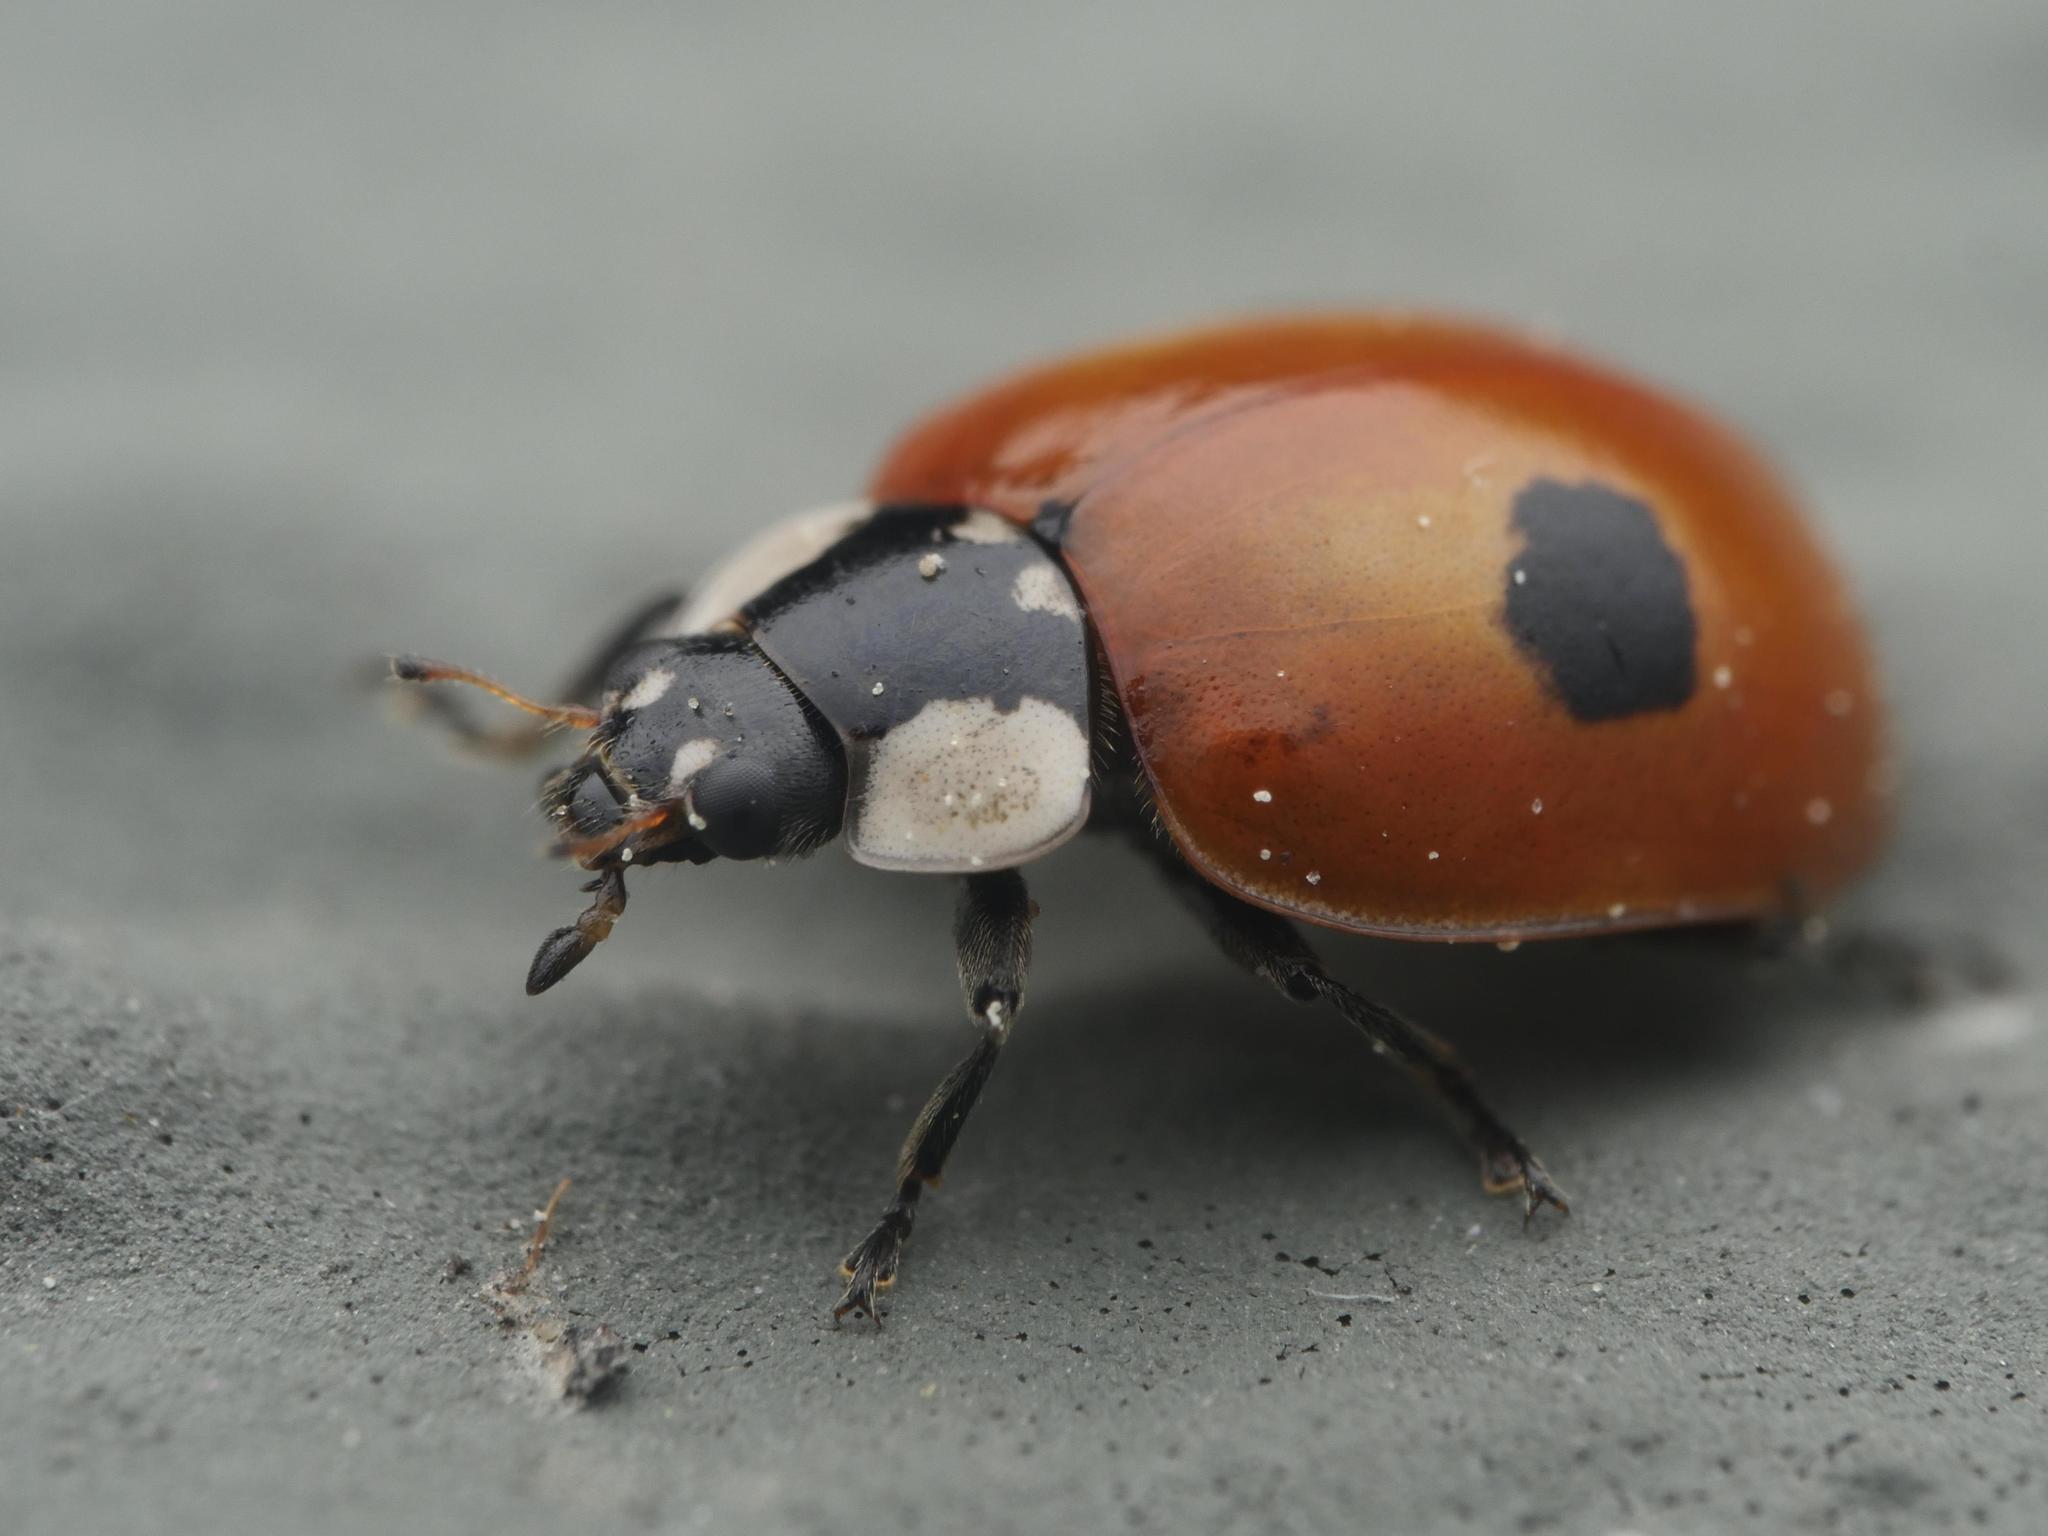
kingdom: Animalia
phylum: Arthropoda
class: Insecta
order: Coleoptera
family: Coccinellidae
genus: Adalia
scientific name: Adalia bipunctata
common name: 2-spot ladybird
